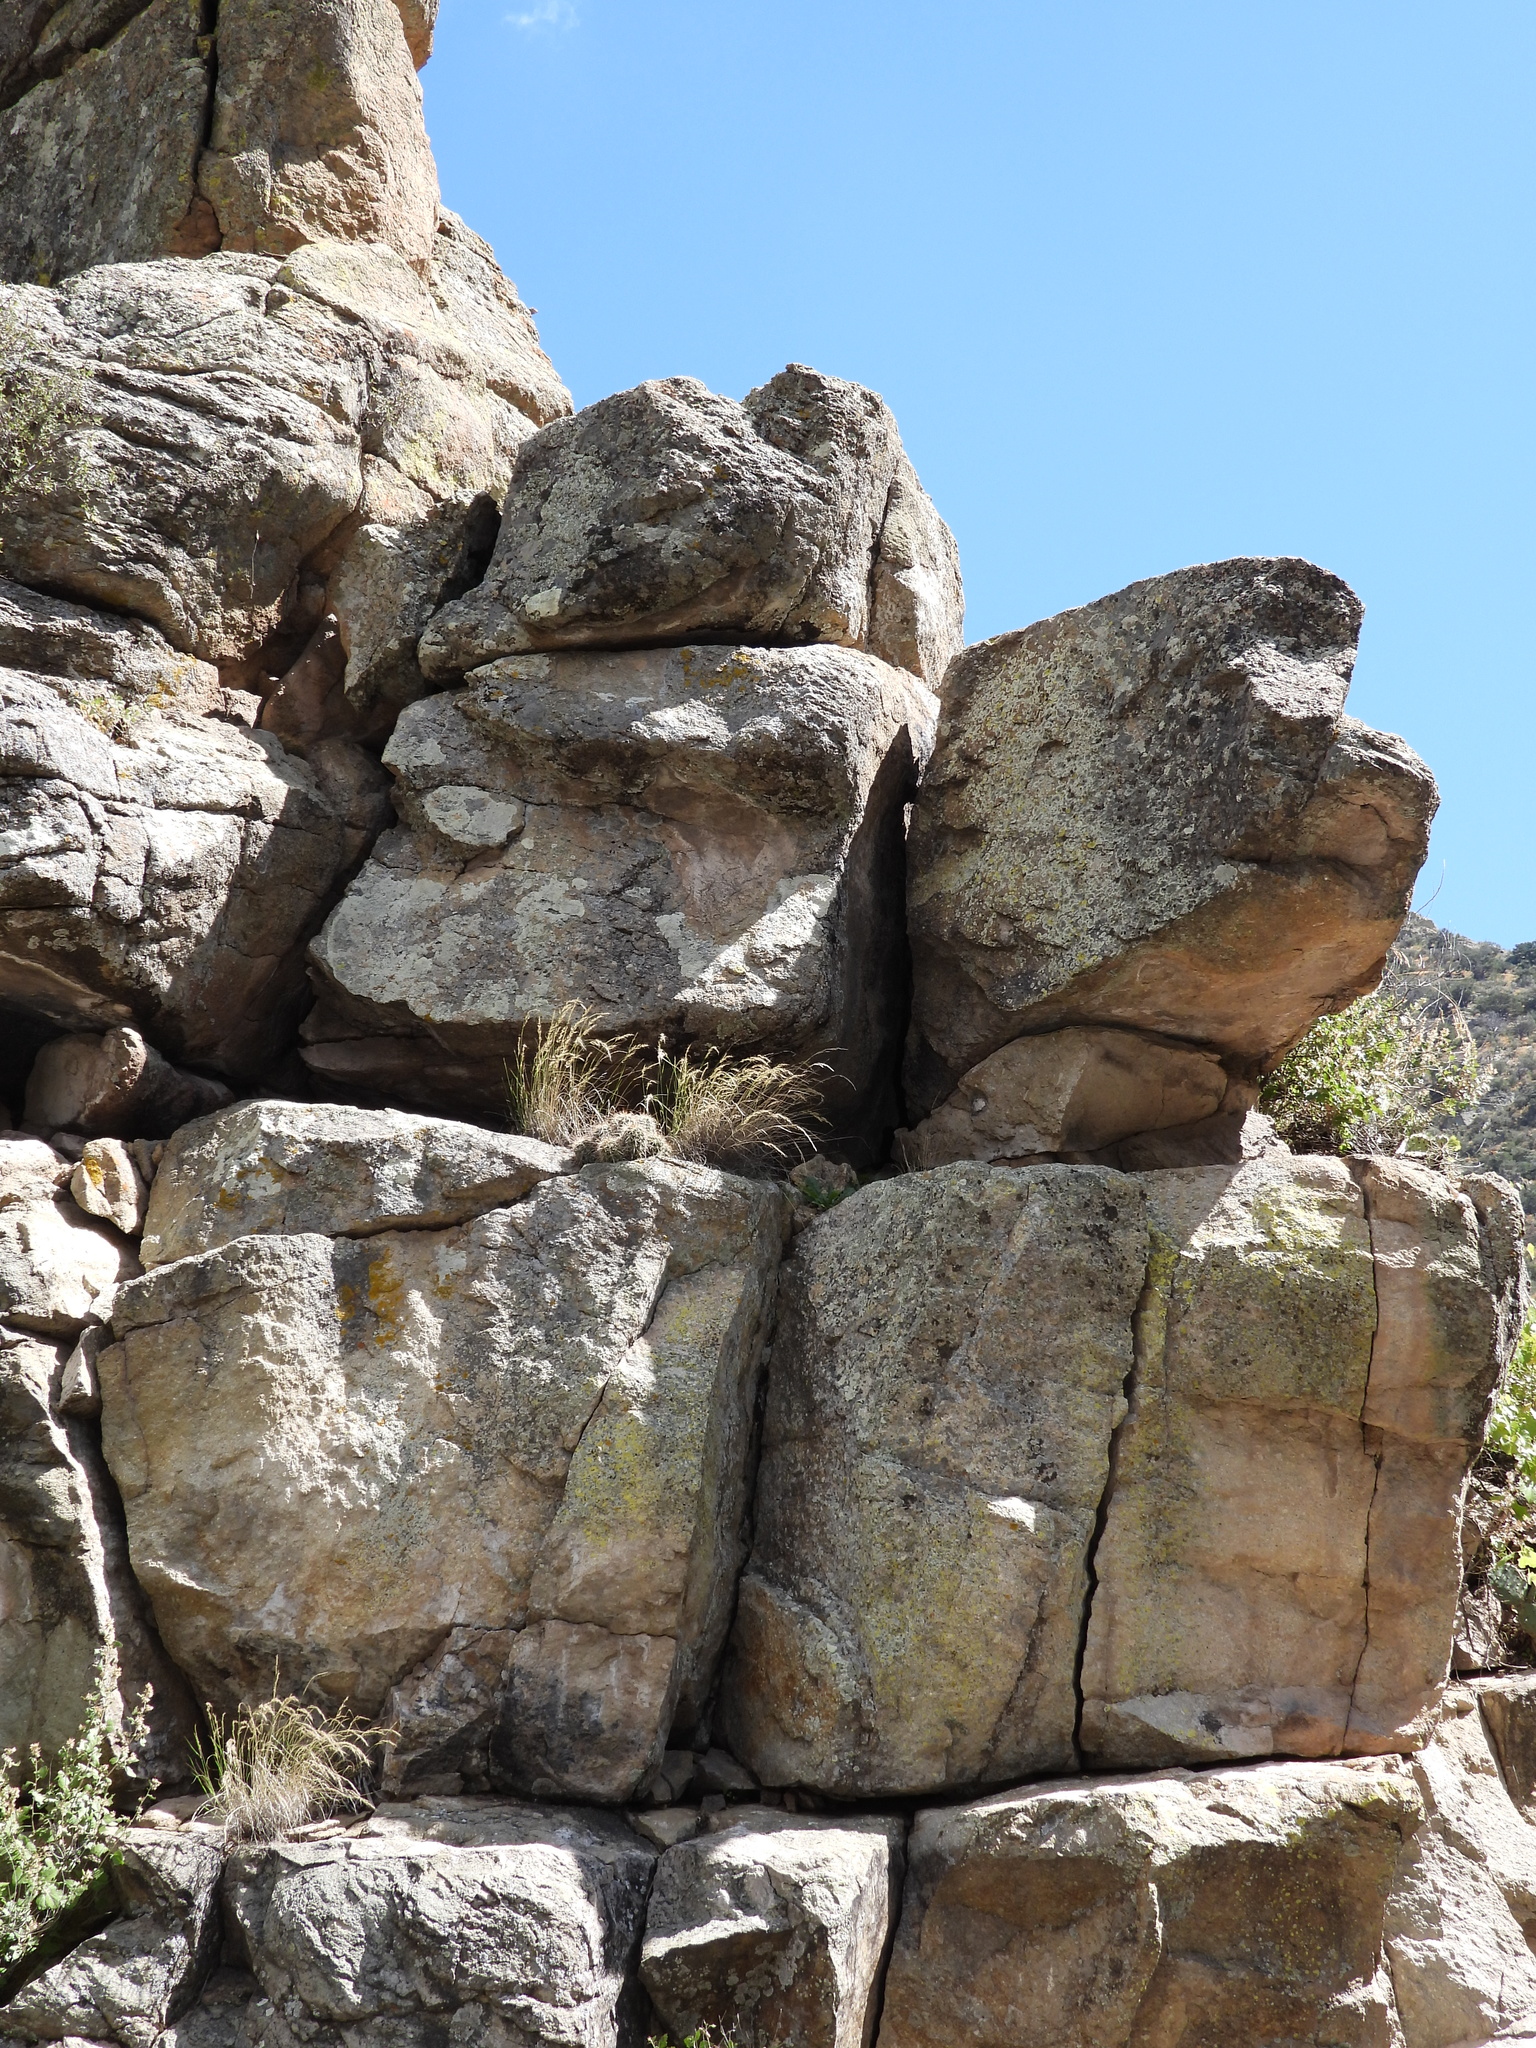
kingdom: Plantae
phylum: Tracheophyta
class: Magnoliopsida
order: Caryophyllales
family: Cactaceae
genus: Echinocereus
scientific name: Echinocereus coccineus
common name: Scarlet hedgehog cactus
